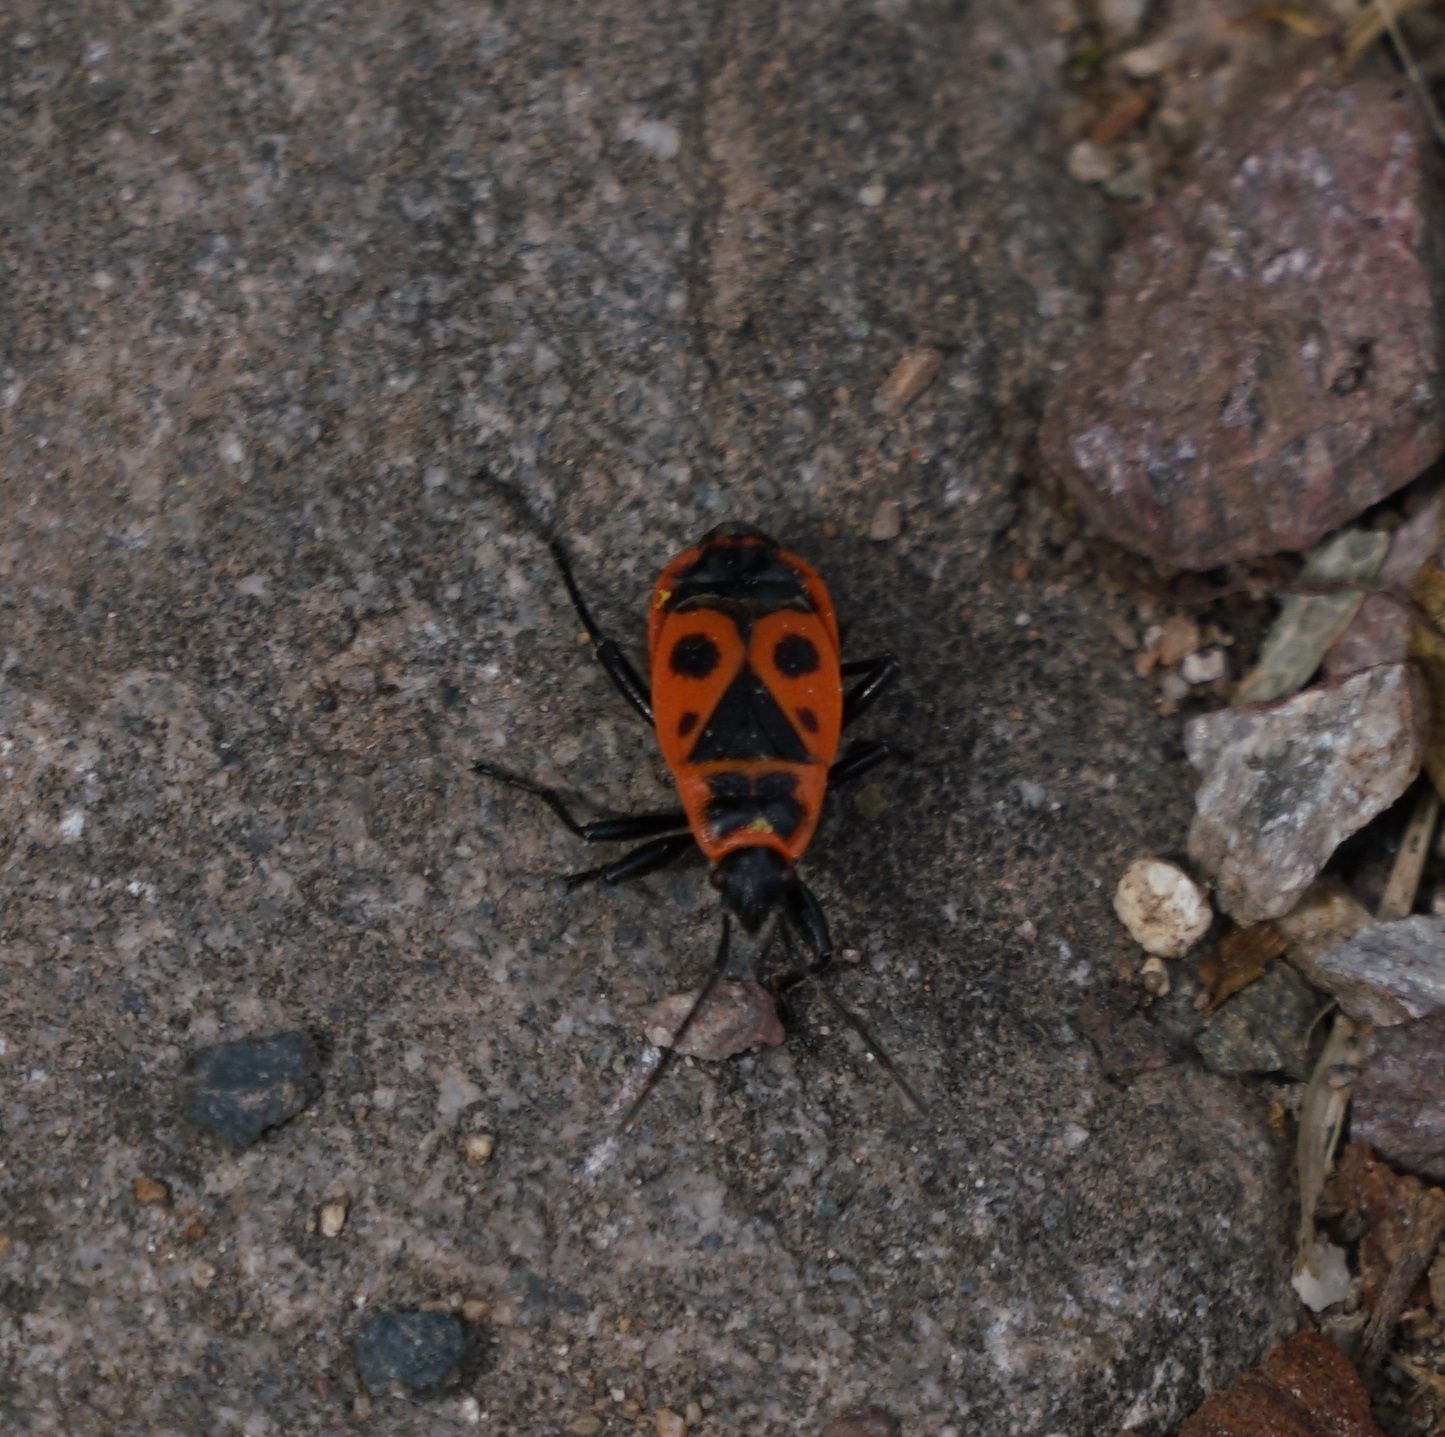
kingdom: Animalia
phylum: Arthropoda
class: Insecta
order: Hemiptera
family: Pyrrhocoridae
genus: Pyrrhocoris
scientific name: Pyrrhocoris apterus
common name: Firebug
